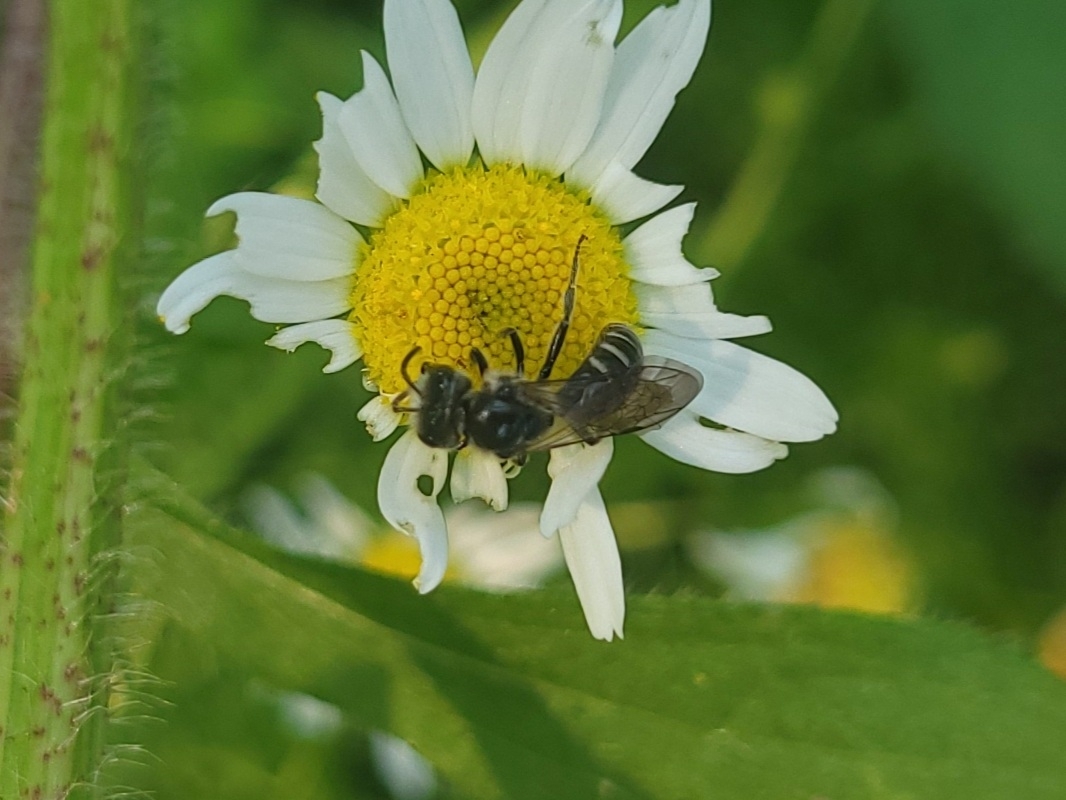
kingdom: Animalia
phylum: Arthropoda
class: Insecta
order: Hymenoptera
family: Halictidae
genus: Lasioglossum
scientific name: Lasioglossum coriaceum
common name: Leathery sweat bee
